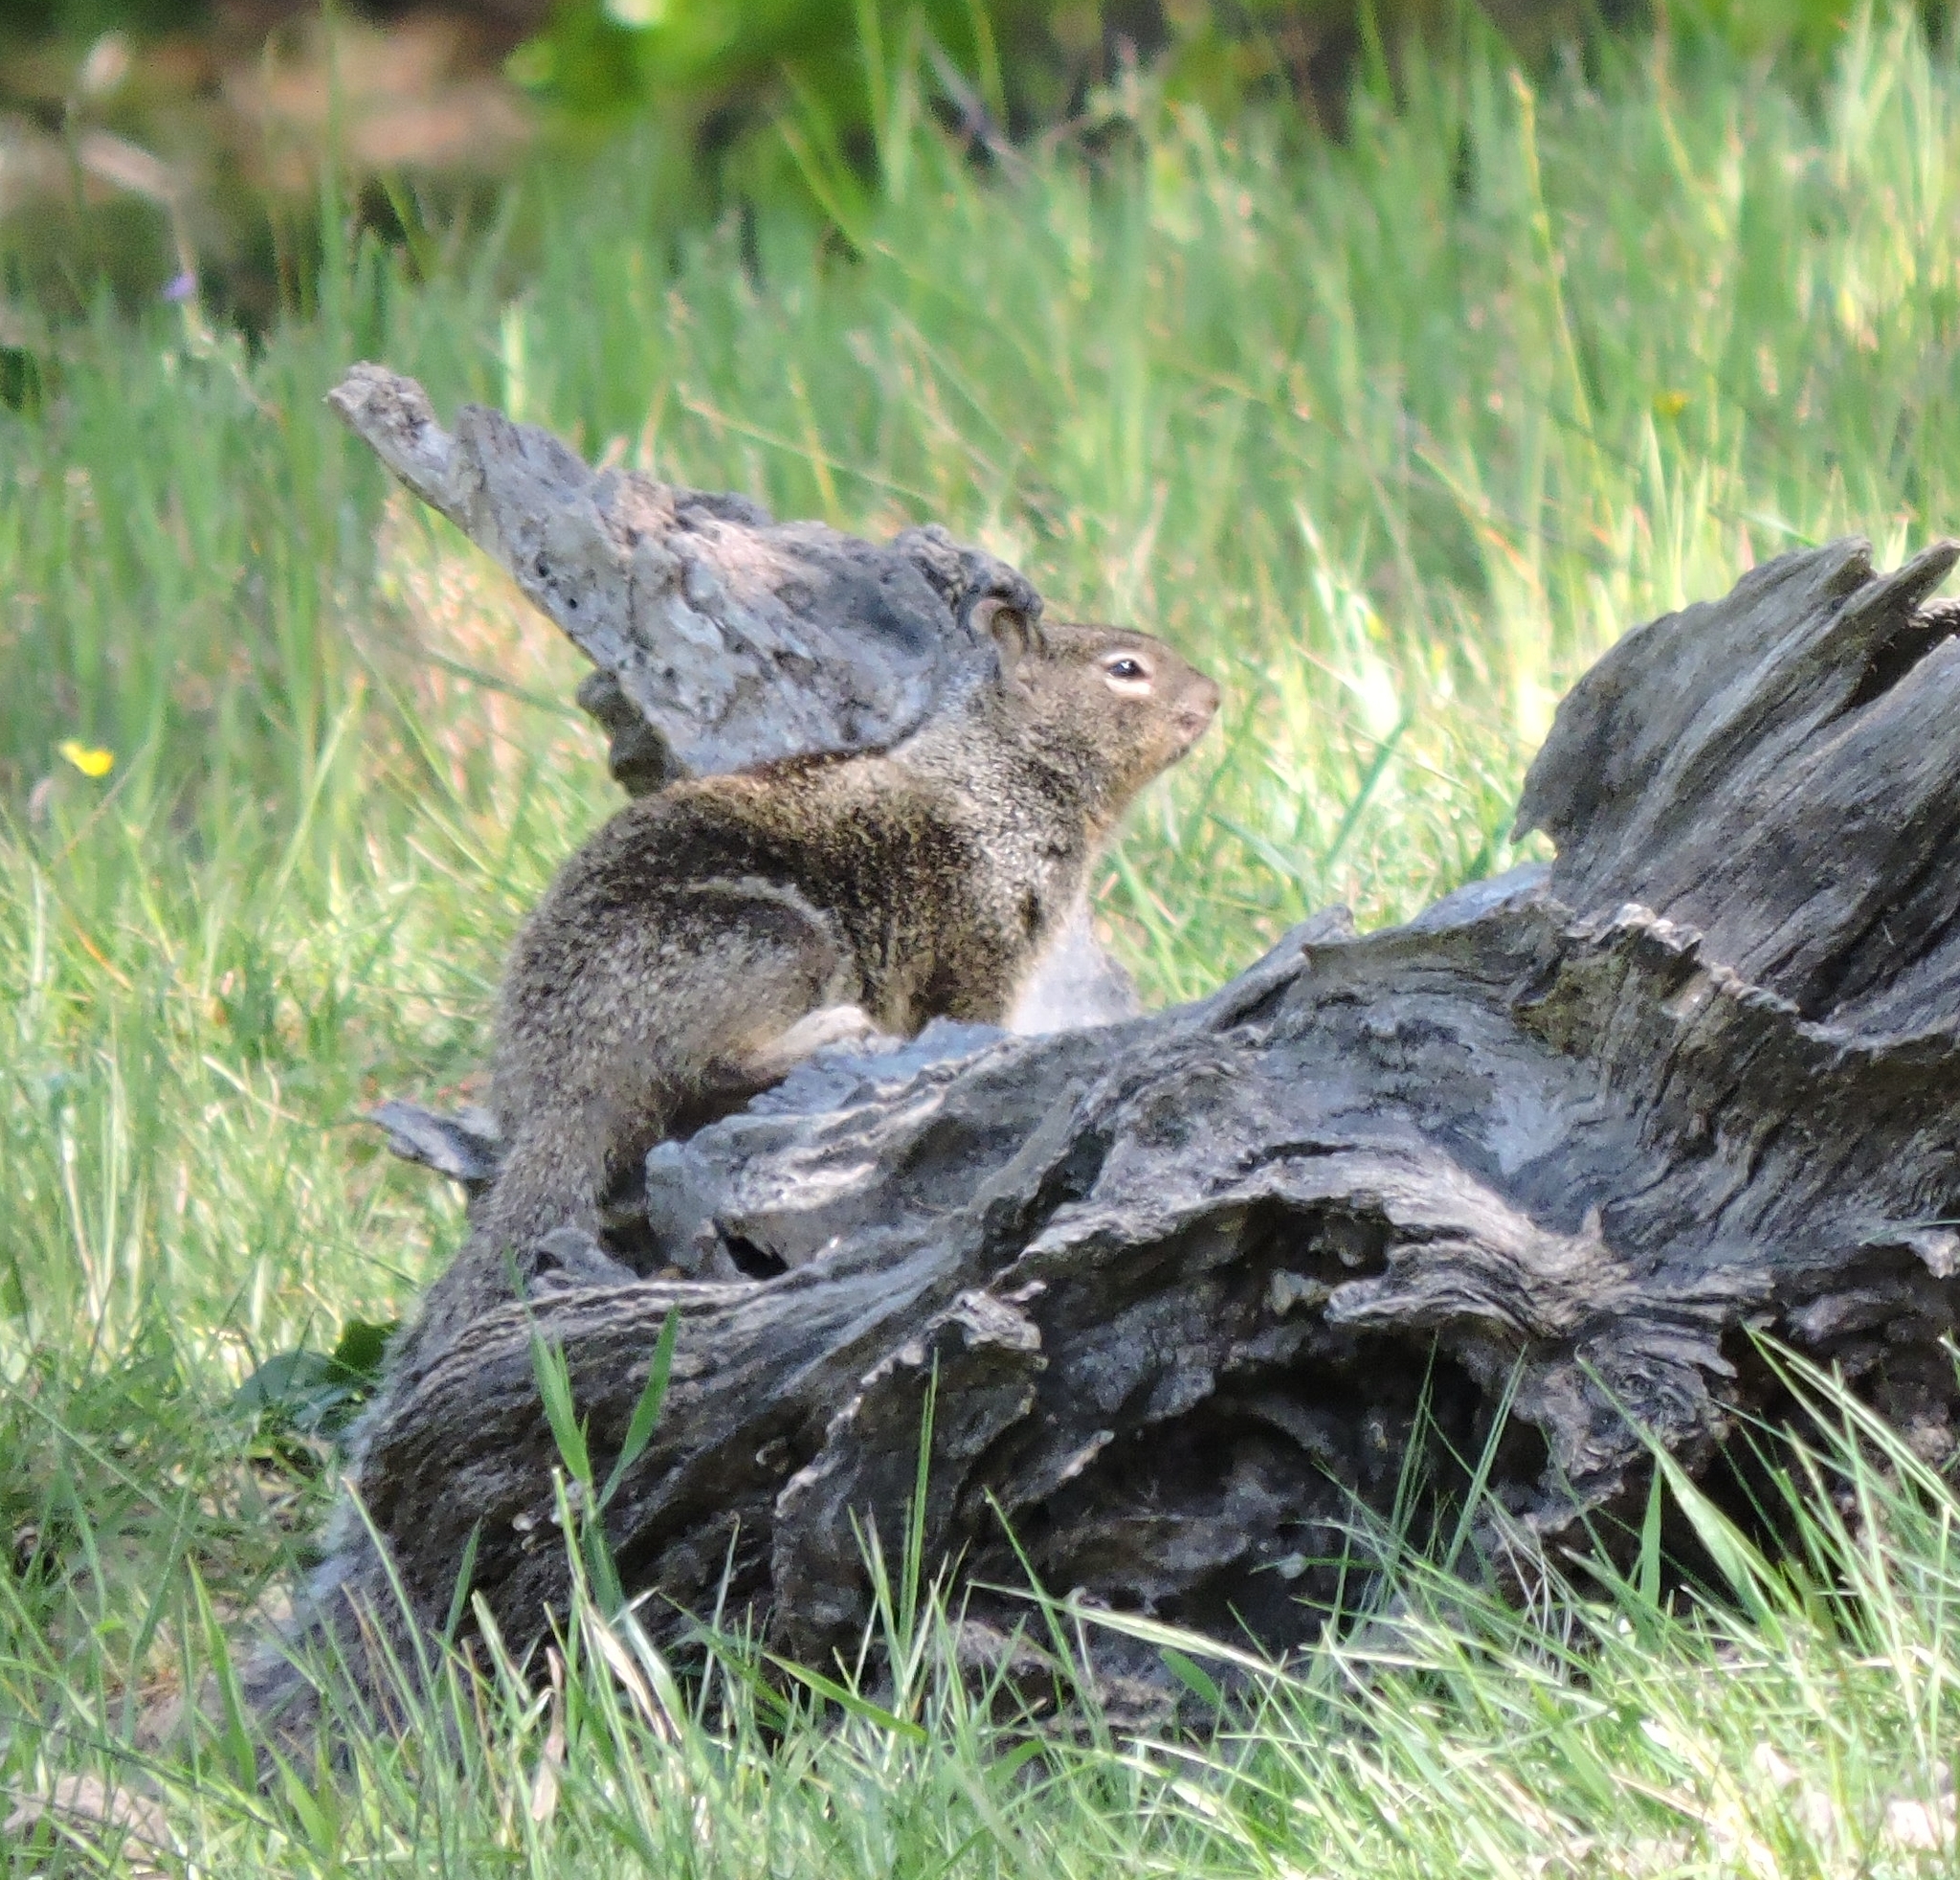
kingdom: Animalia
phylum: Chordata
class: Mammalia
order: Rodentia
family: Sciuridae
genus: Otospermophilus
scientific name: Otospermophilus beecheyi
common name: California ground squirrel
